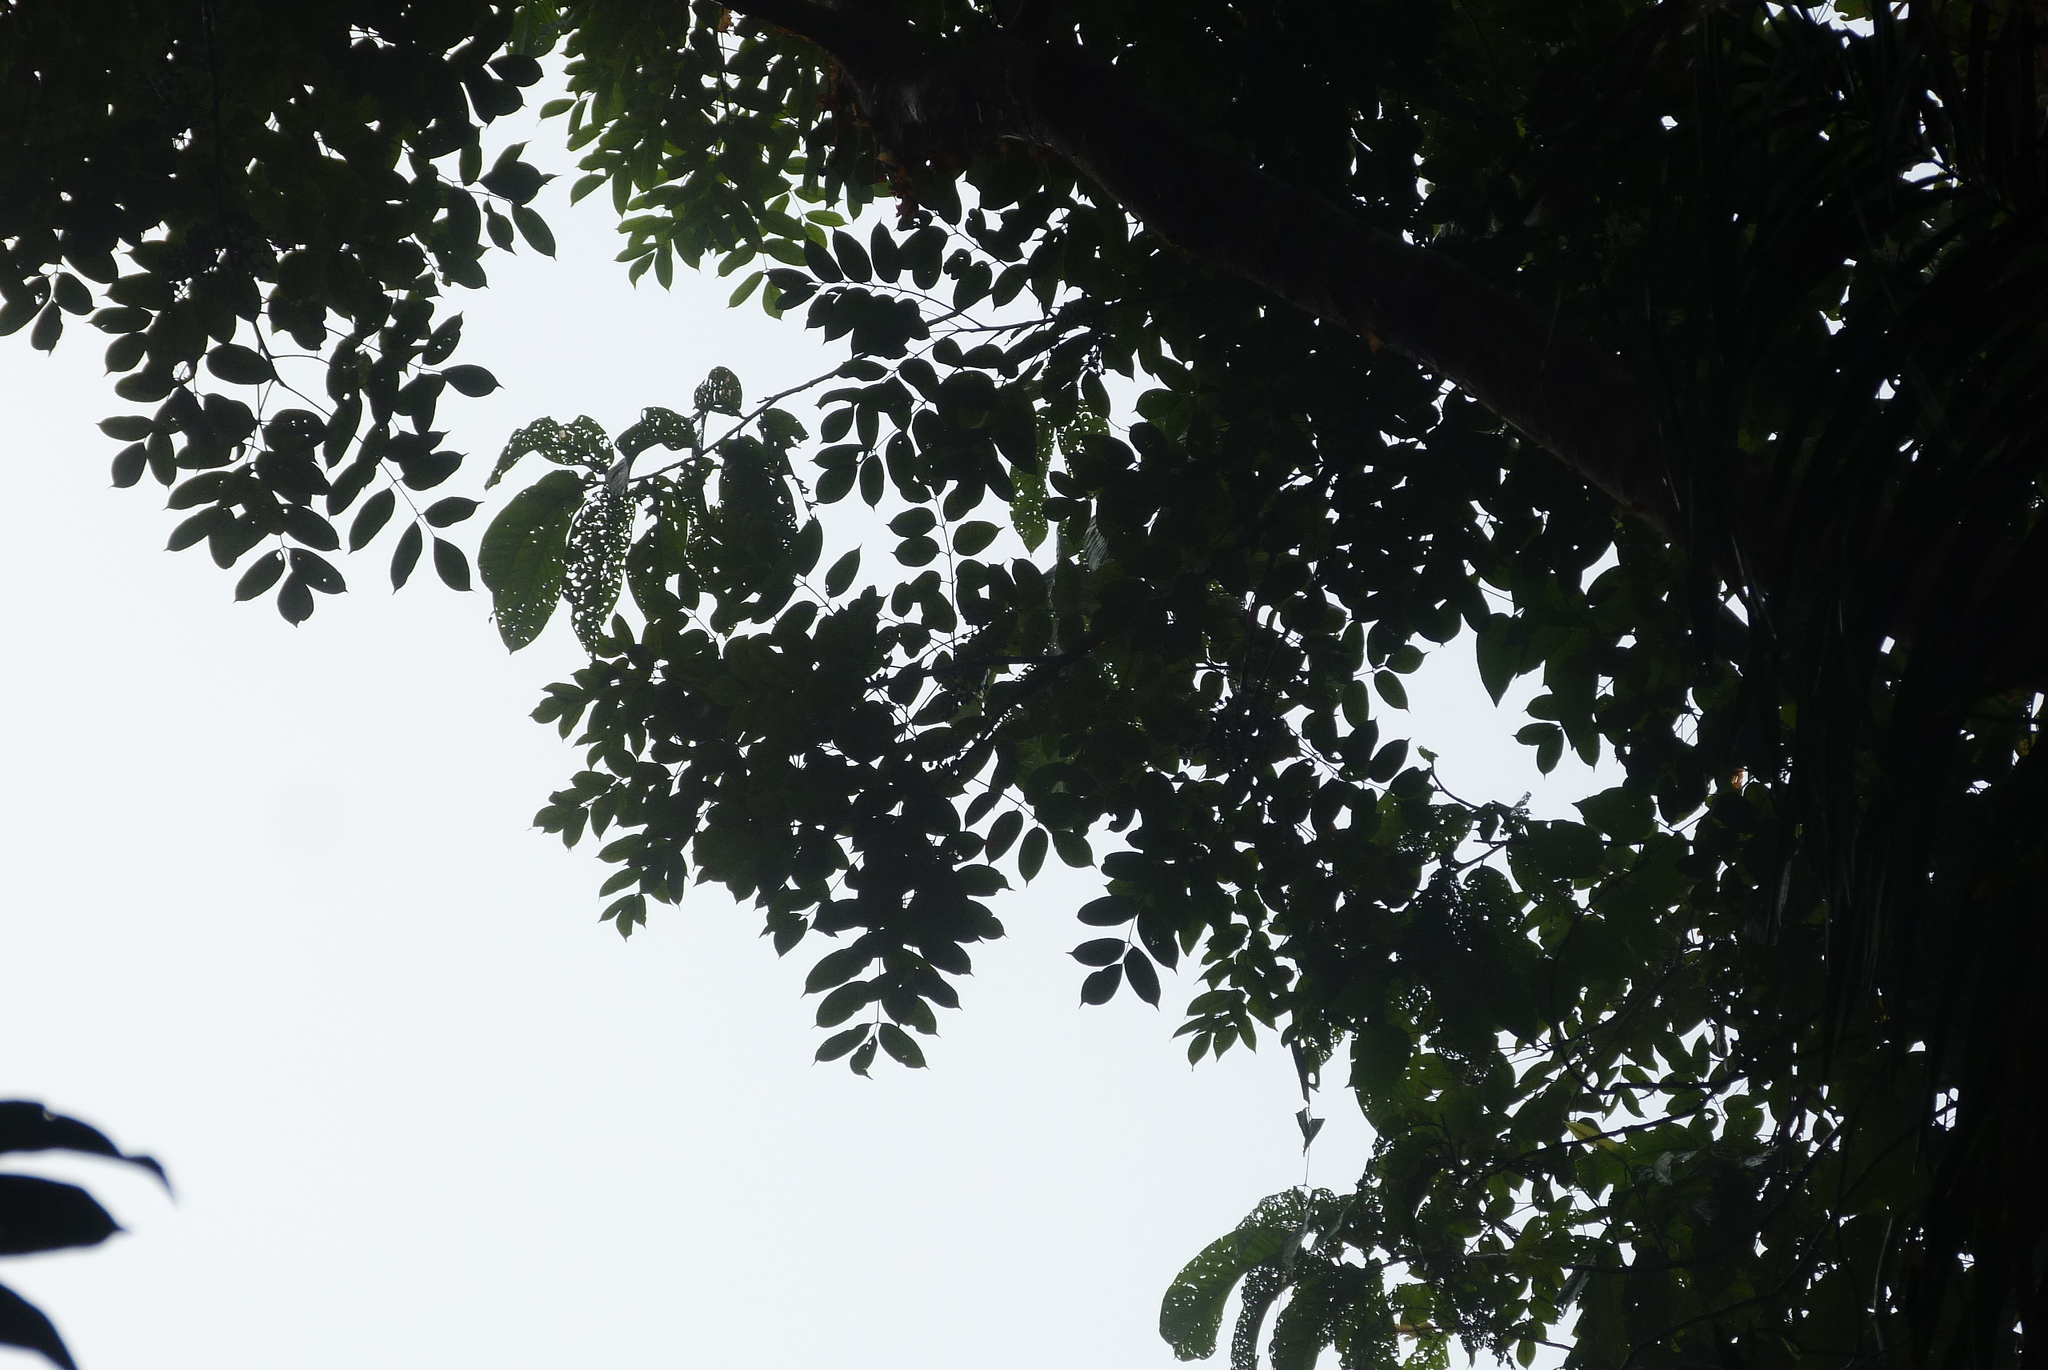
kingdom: Plantae
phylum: Tracheophyta
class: Magnoliopsida
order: Sapindales
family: Burseraceae
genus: Bursera
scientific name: Bursera simaruba
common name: Turpentine tree
